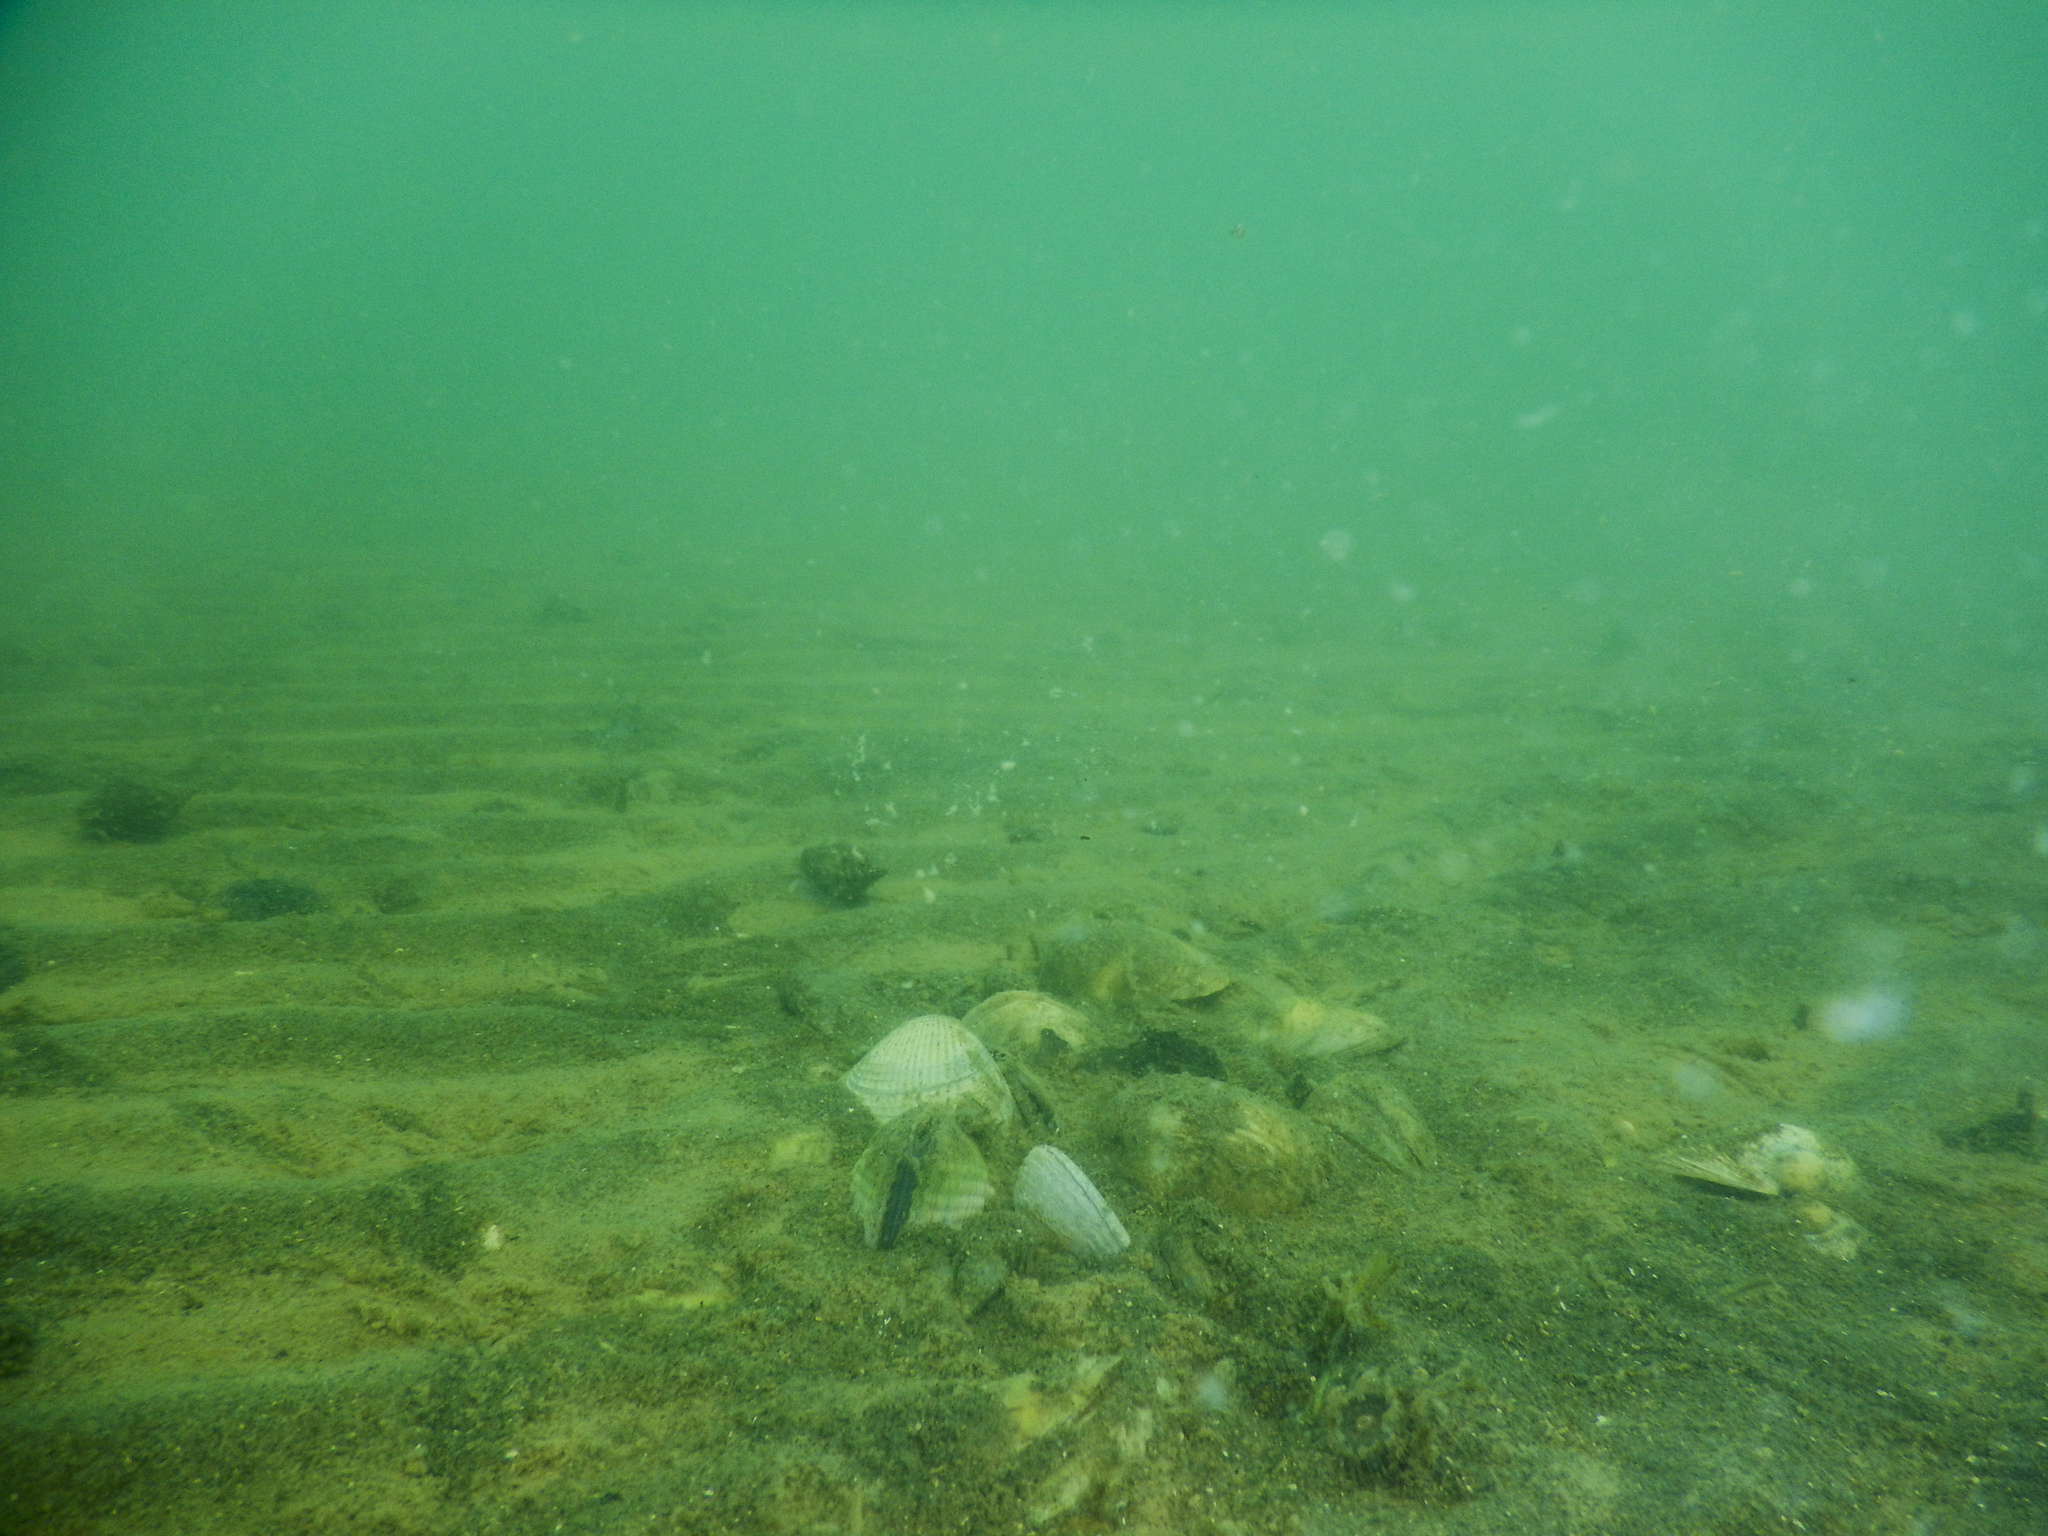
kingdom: Animalia
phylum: Mollusca
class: Bivalvia
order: Venerida
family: Veneridae
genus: Austrovenus
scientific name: Austrovenus stutchburyi
